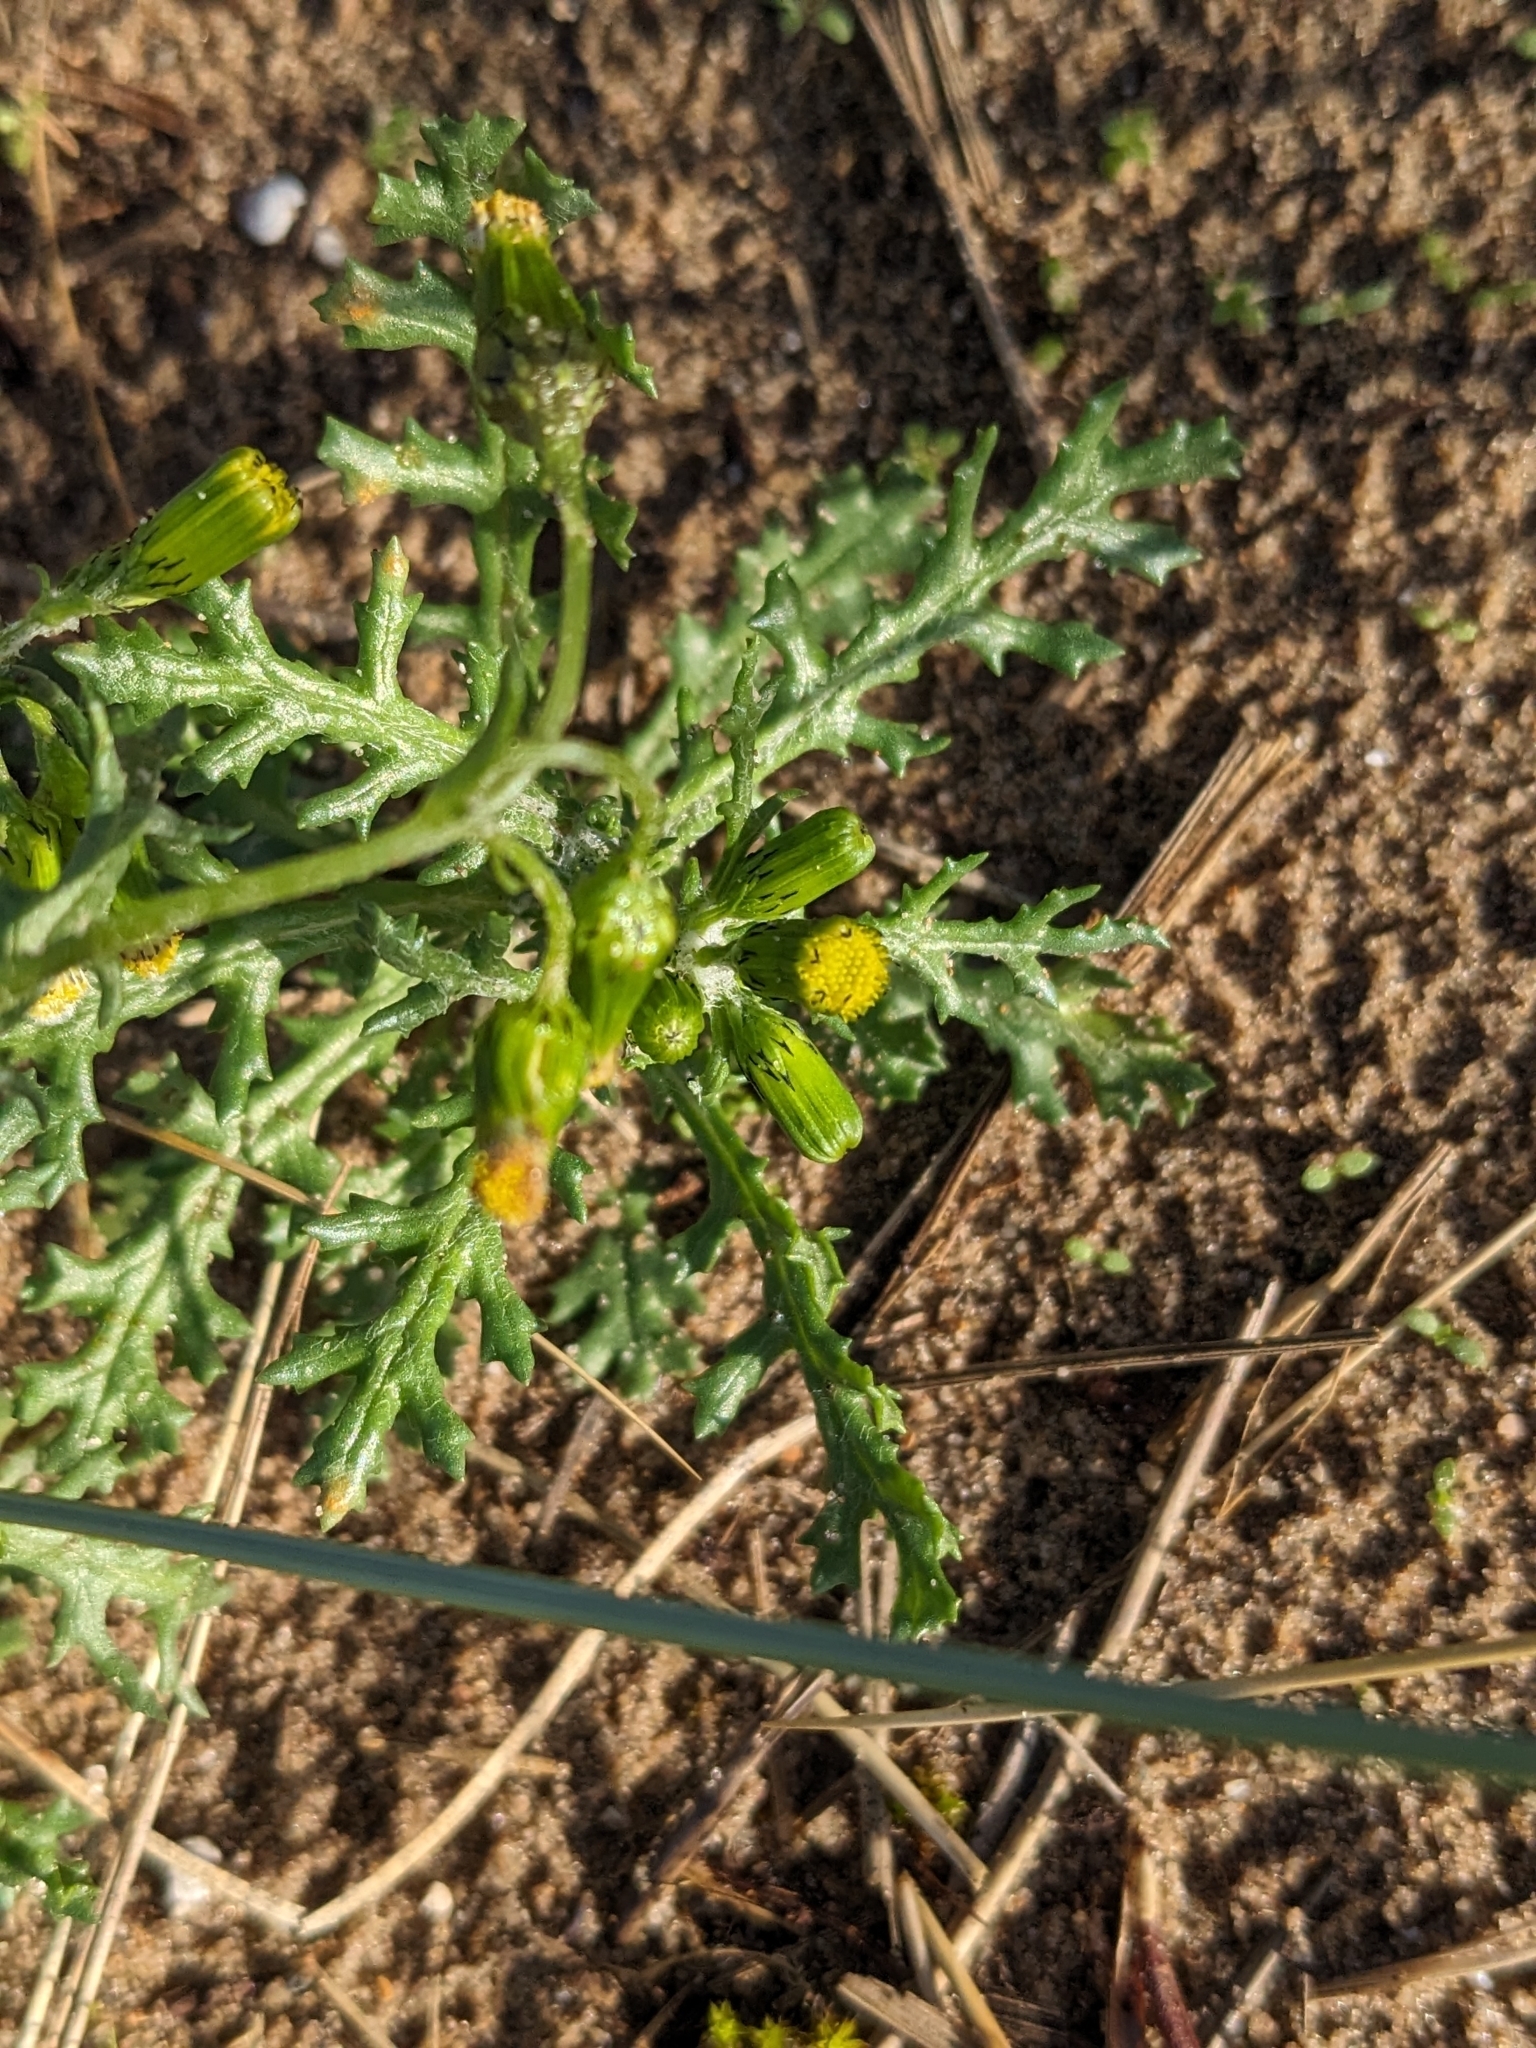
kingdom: Plantae
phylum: Tracheophyta
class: Magnoliopsida
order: Asterales
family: Asteraceae
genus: Senecio
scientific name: Senecio vulgaris
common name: Old-man-in-the-spring
